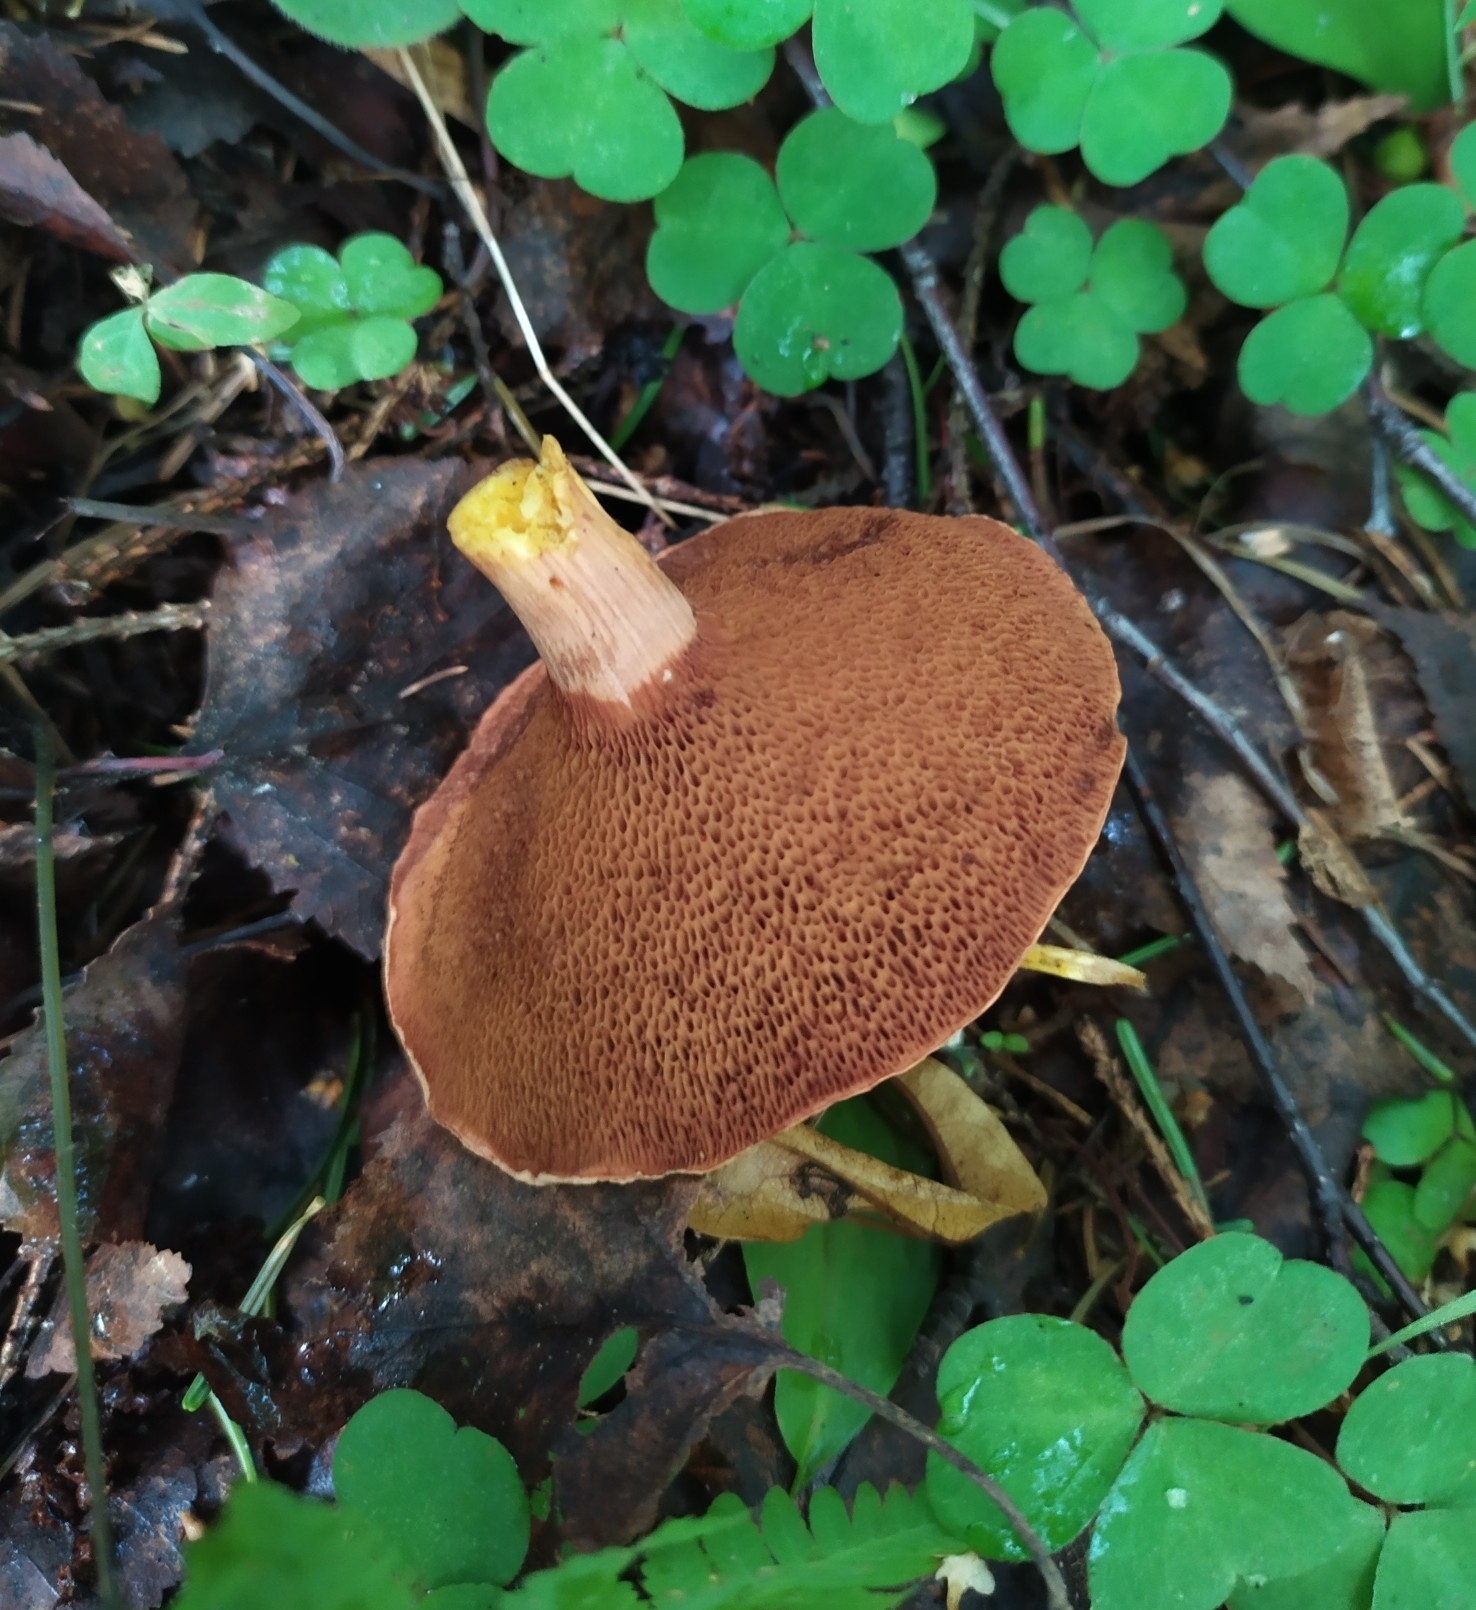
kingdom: Fungi
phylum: Basidiomycota
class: Agaricomycetes
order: Boletales
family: Boletaceae
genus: Chalciporus
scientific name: Chalciporus piperatus
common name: Peppery bolete
